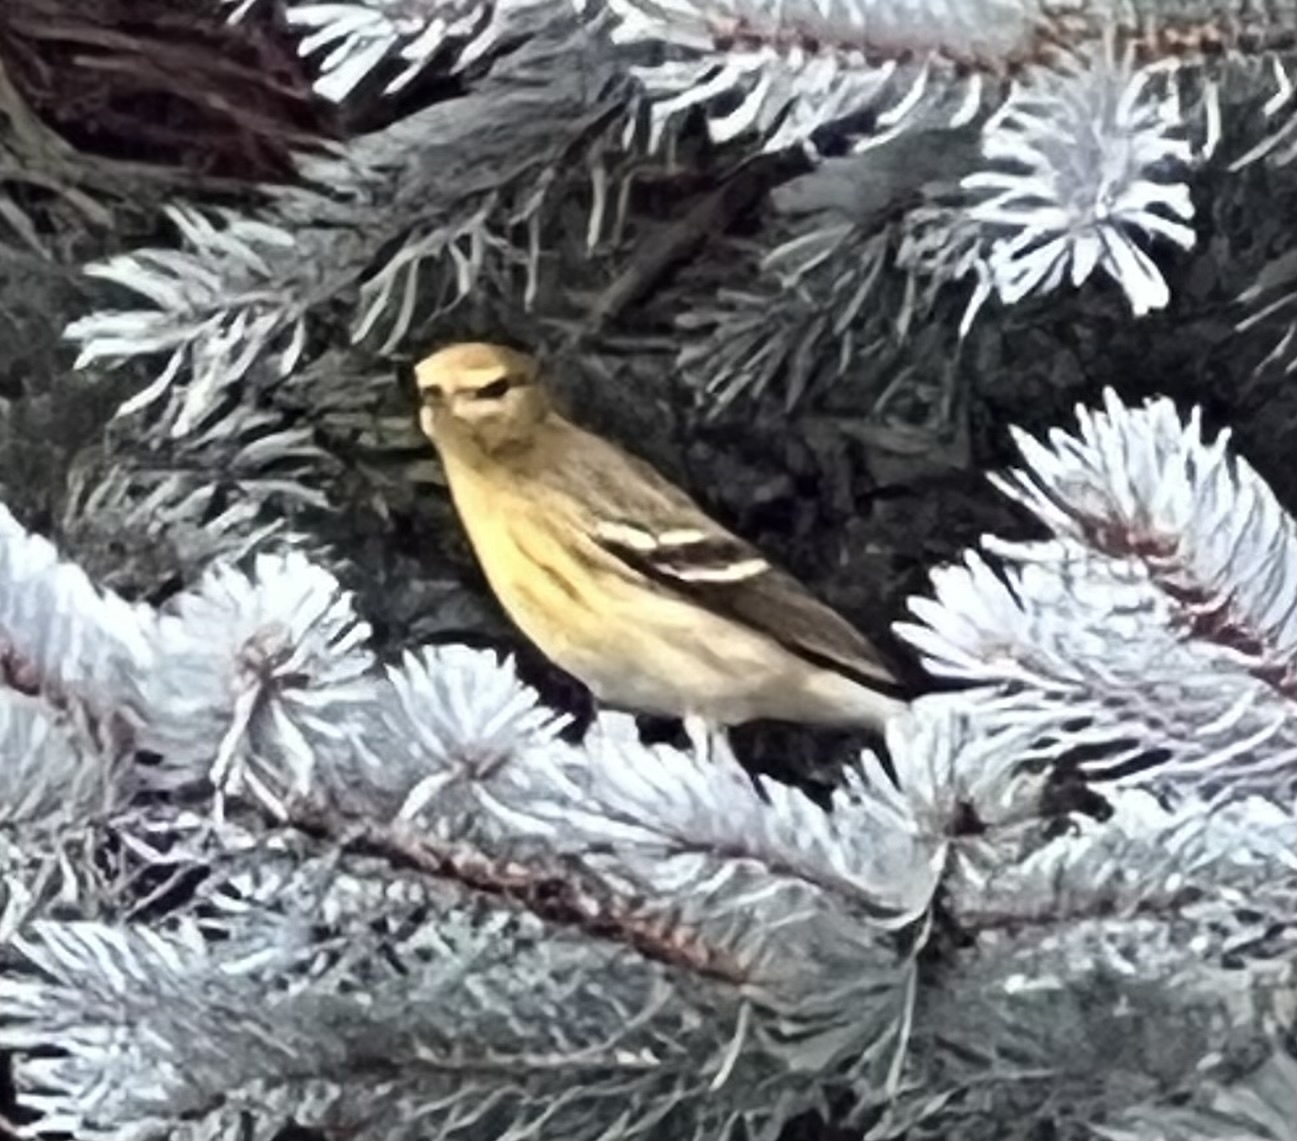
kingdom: Animalia
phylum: Chordata
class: Aves
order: Passeriformes
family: Parulidae
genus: Setophaga
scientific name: Setophaga striata
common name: Blackpoll warbler
